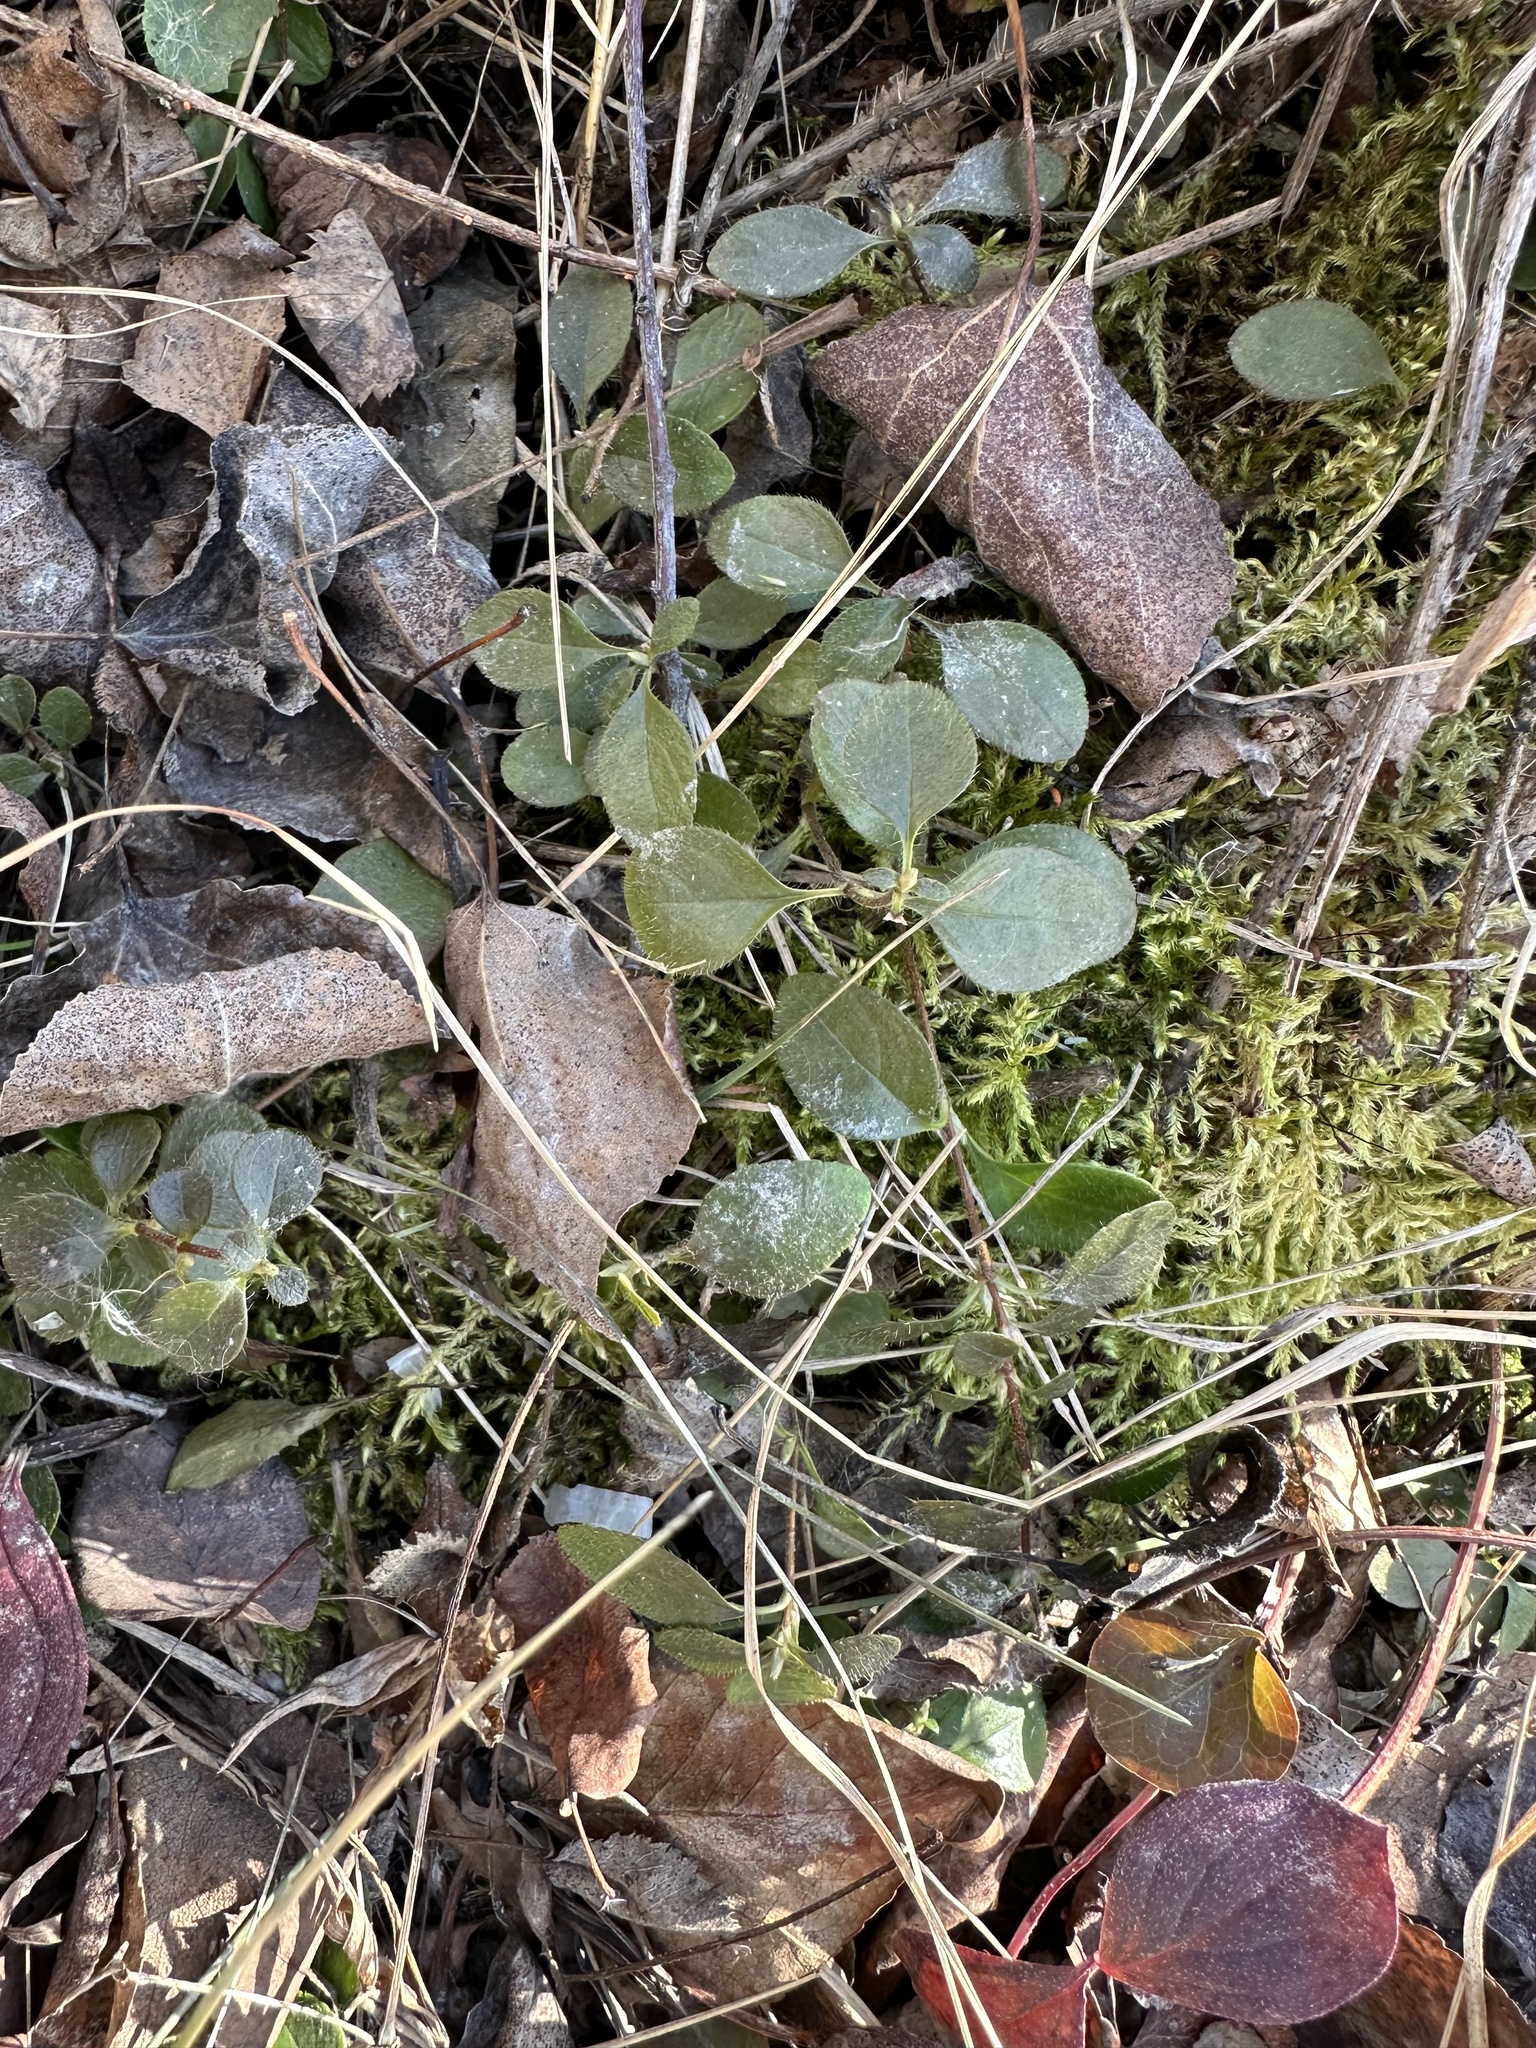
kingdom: Plantae
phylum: Tracheophyta
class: Magnoliopsida
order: Dipsacales
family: Caprifoliaceae
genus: Linnaea
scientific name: Linnaea borealis
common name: Twinflower
